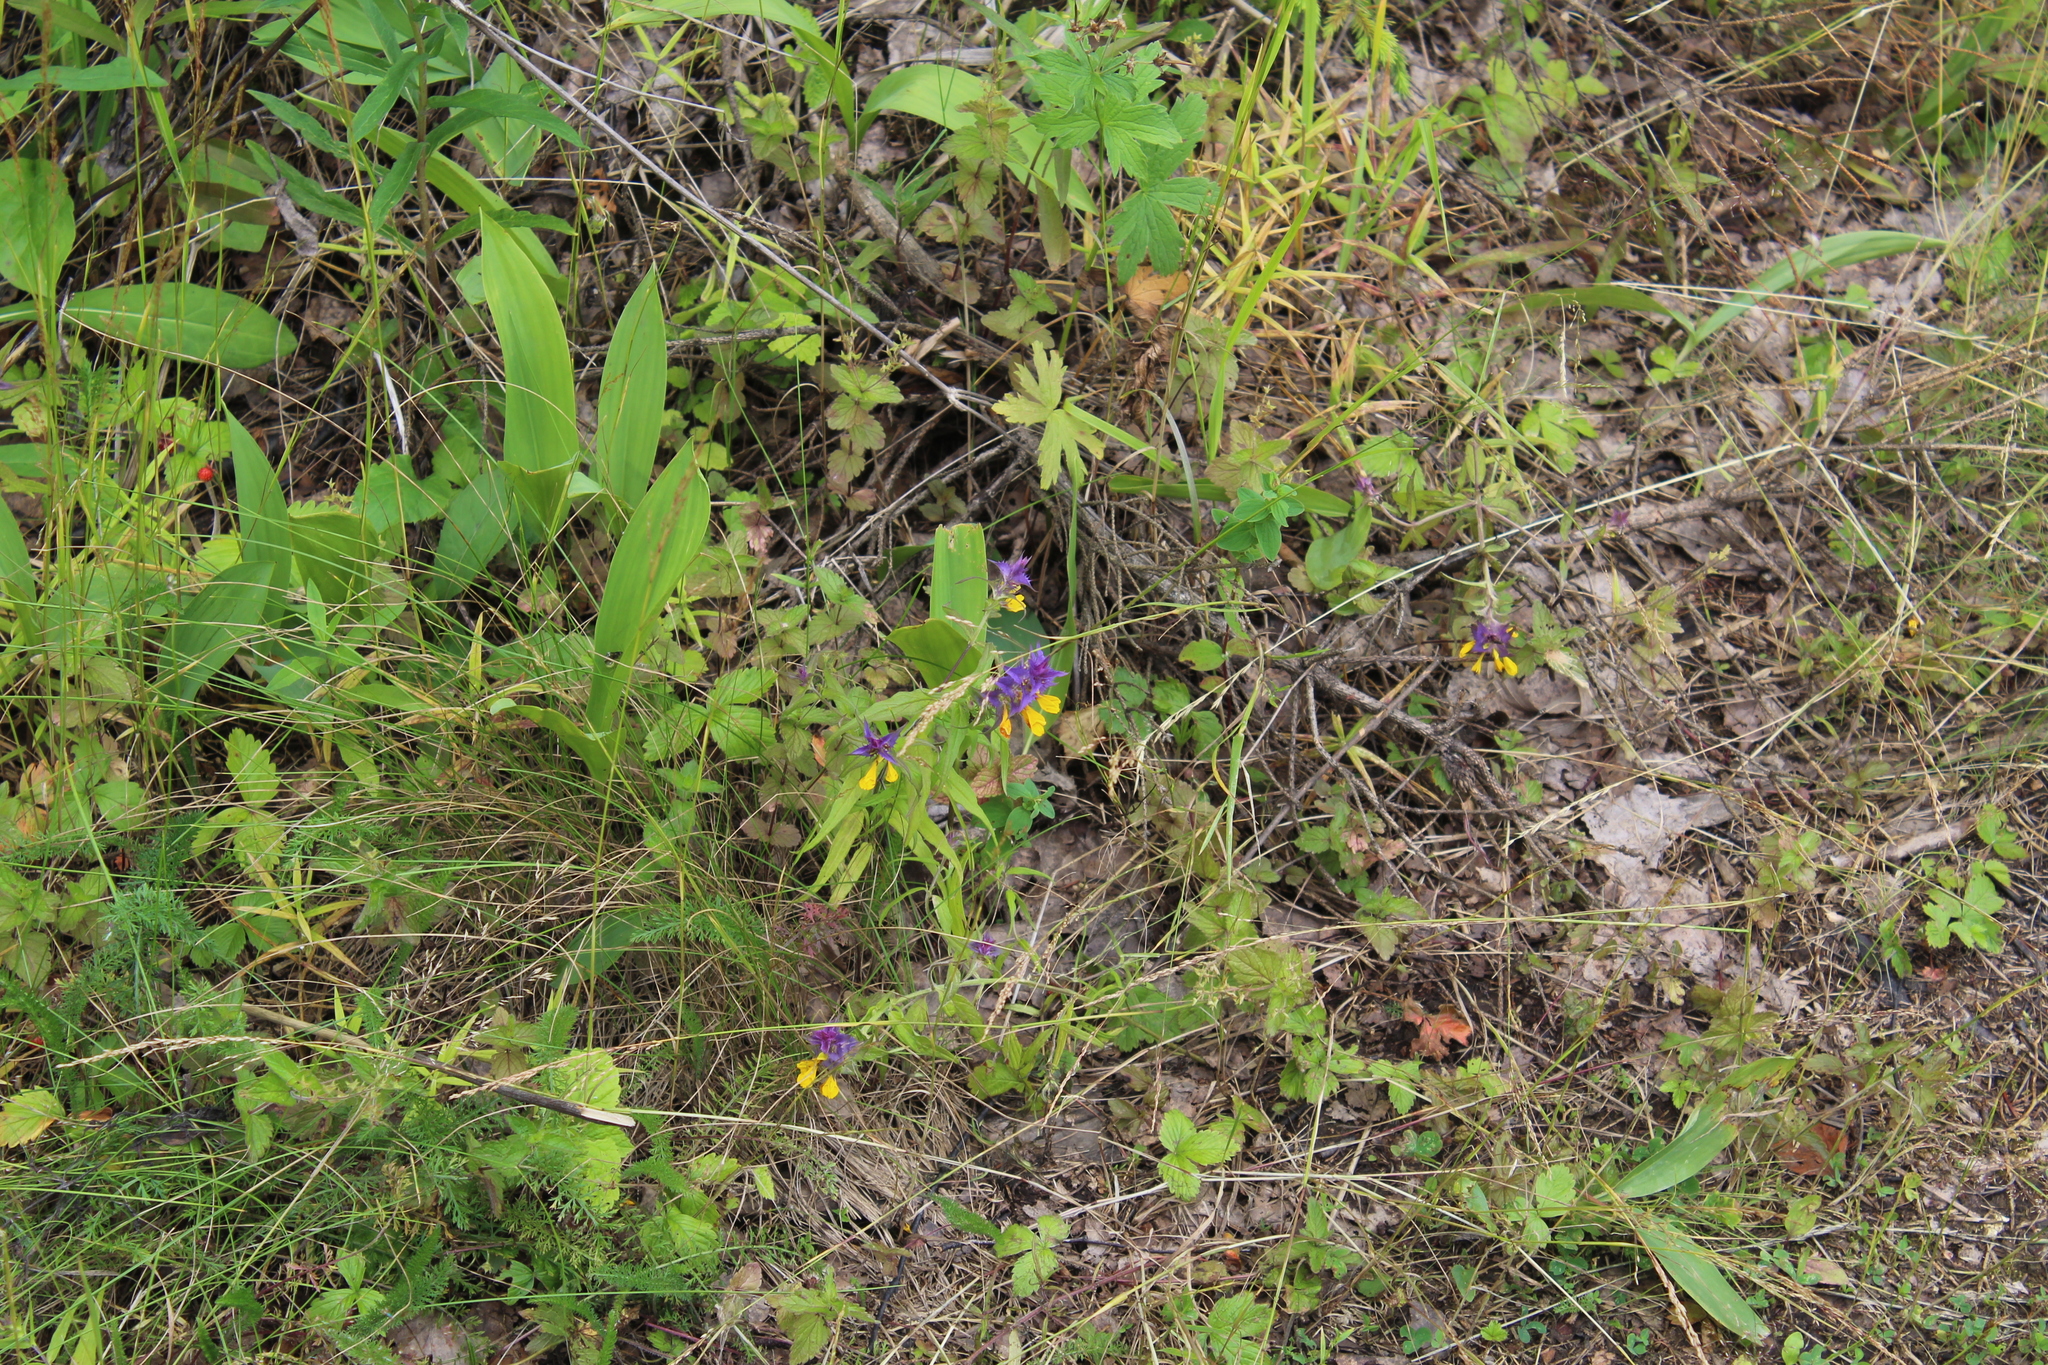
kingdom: Plantae
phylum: Tracheophyta
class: Magnoliopsida
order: Lamiales
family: Orobanchaceae
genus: Melampyrum
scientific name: Melampyrum nemorosum
